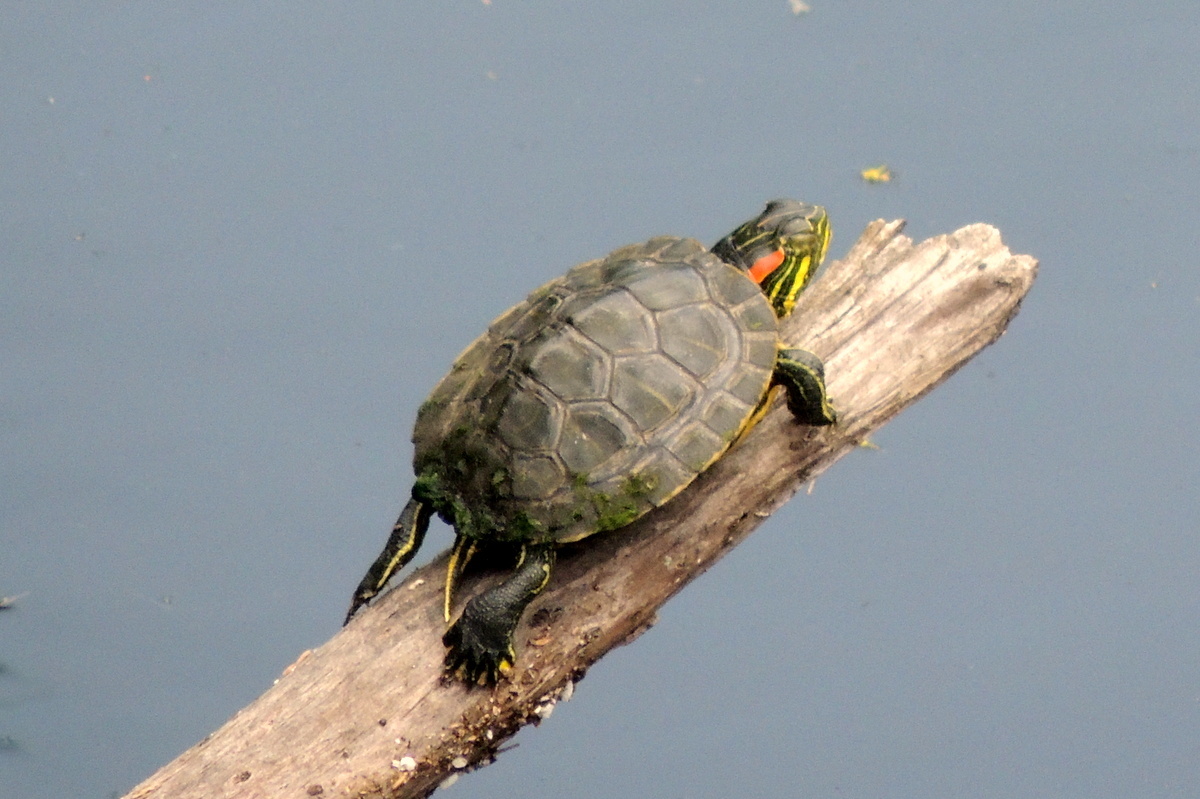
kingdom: Animalia
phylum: Chordata
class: Testudines
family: Emydidae
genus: Trachemys
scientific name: Trachemys scripta
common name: Slider
